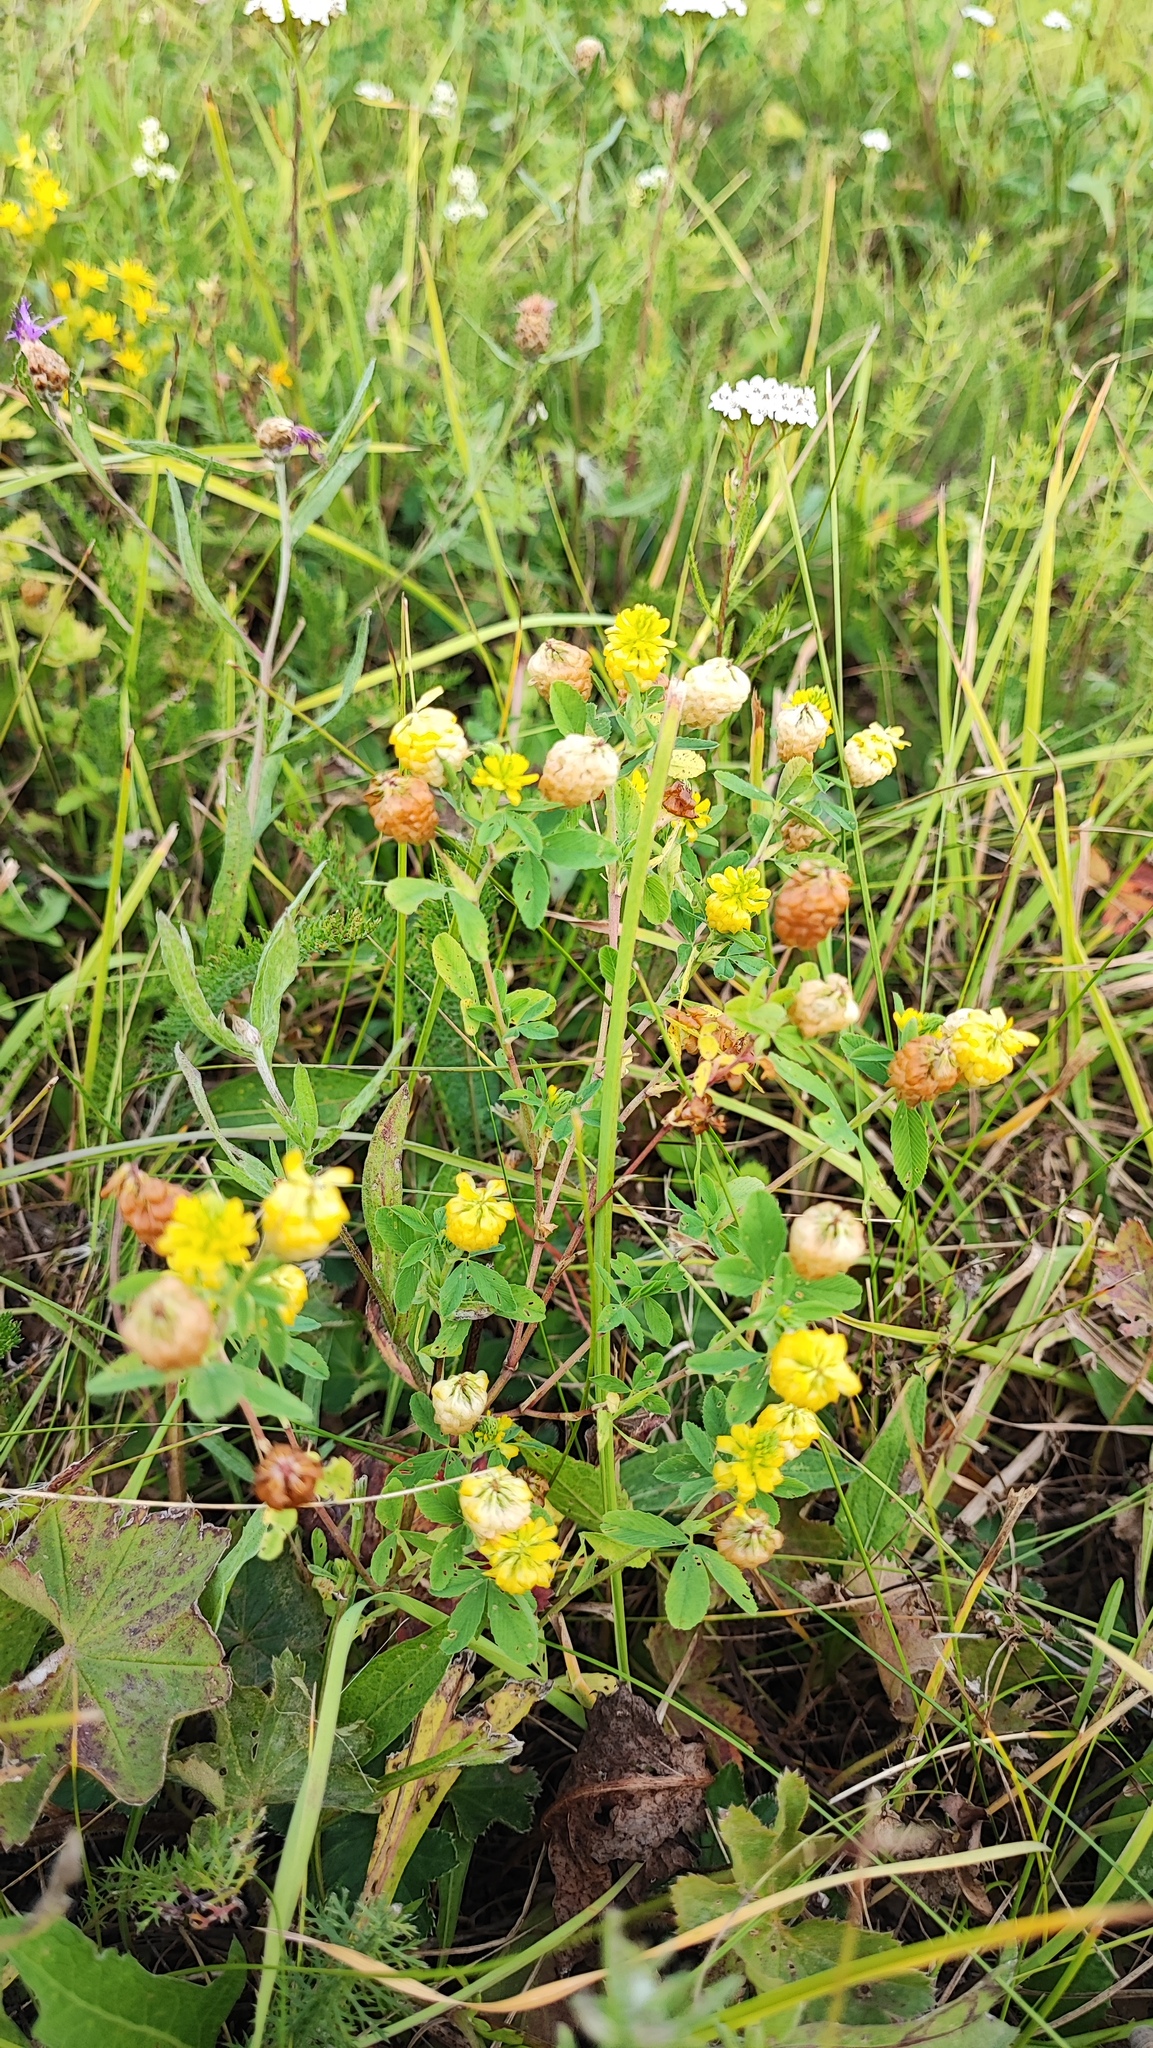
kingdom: Plantae
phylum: Tracheophyta
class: Magnoliopsida
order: Fabales
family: Fabaceae
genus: Trifolium
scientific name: Trifolium aureum
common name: Golden clover
